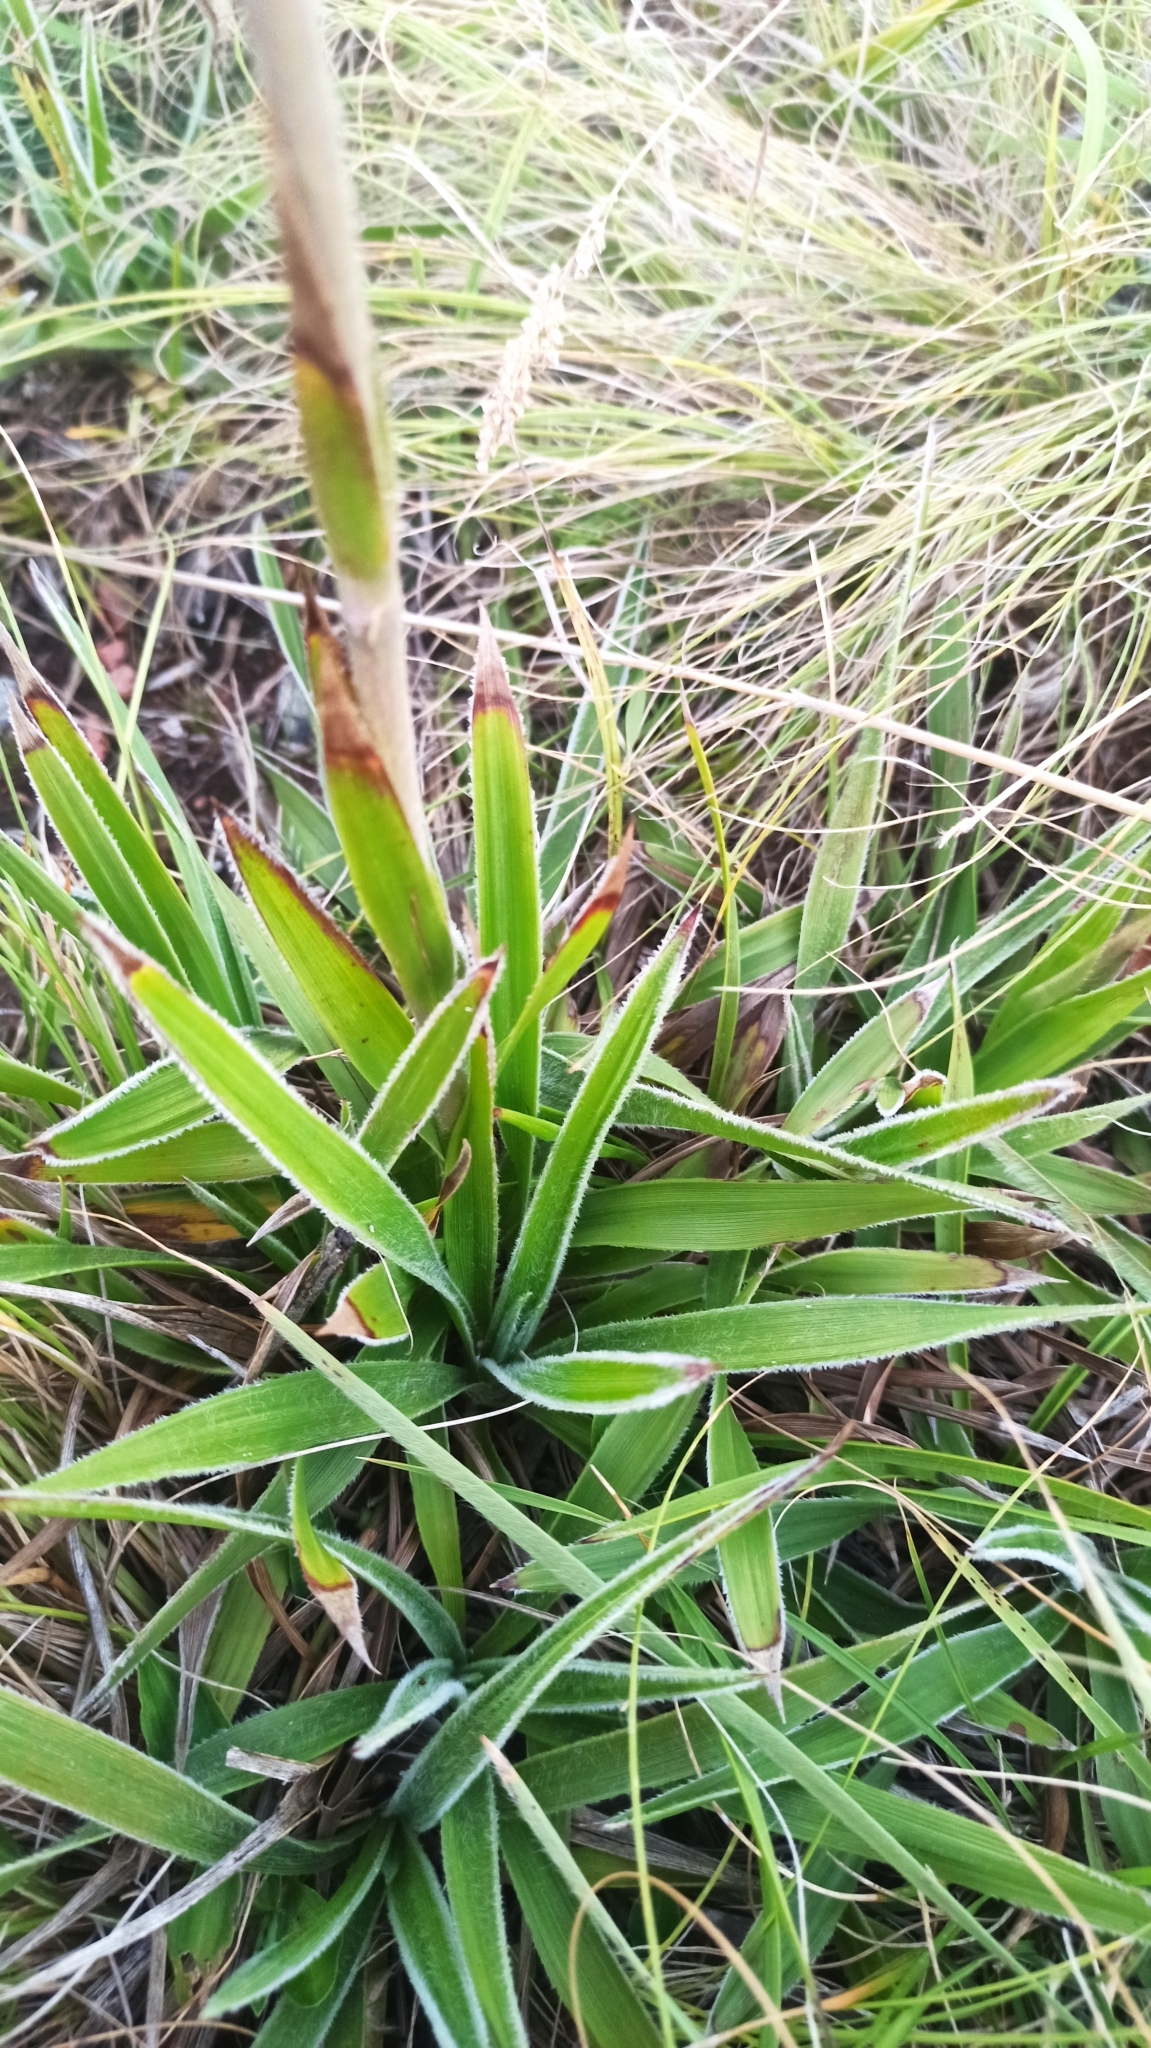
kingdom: Plantae
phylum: Tracheophyta
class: Magnoliopsida
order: Asterales
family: Asteraceae
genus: Schlechtendalia
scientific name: Schlechtendalia luzulifolia
